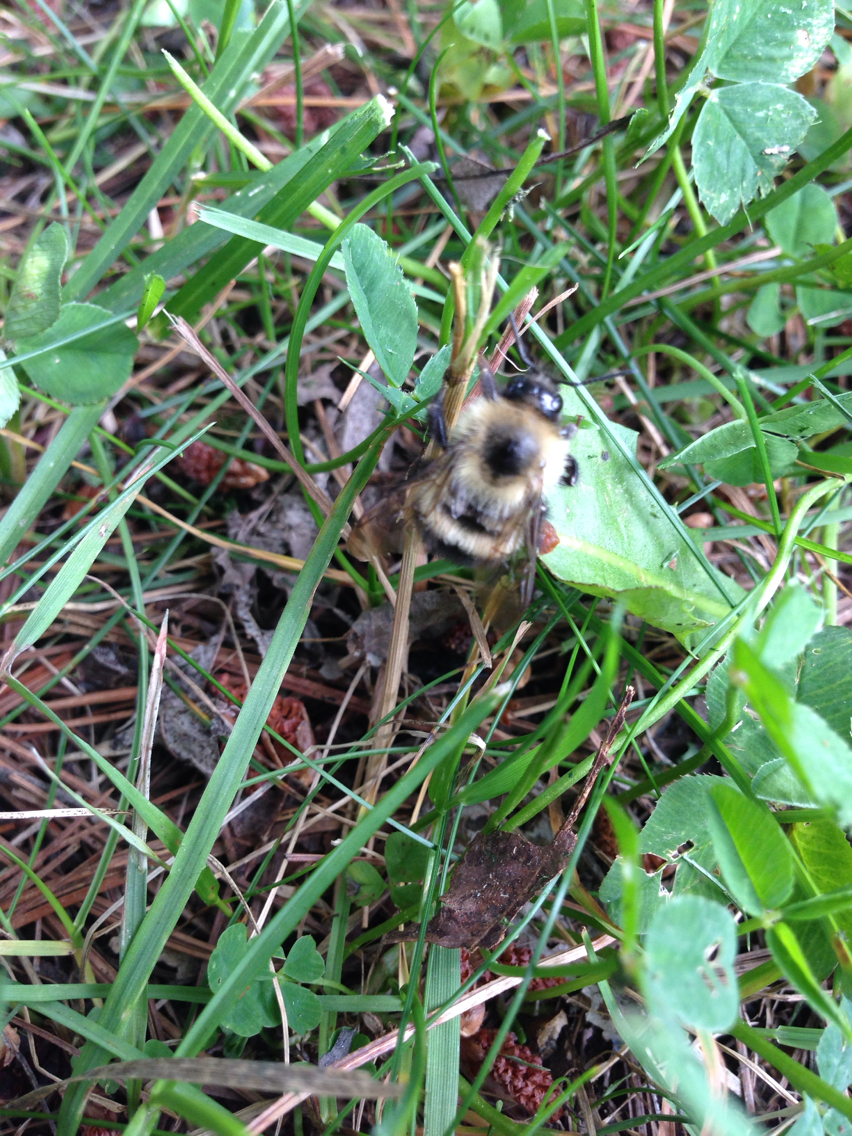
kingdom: Animalia
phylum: Arthropoda
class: Insecta
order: Hymenoptera
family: Apidae
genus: Bombus
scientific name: Bombus vagans
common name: Half-black bumble bee
